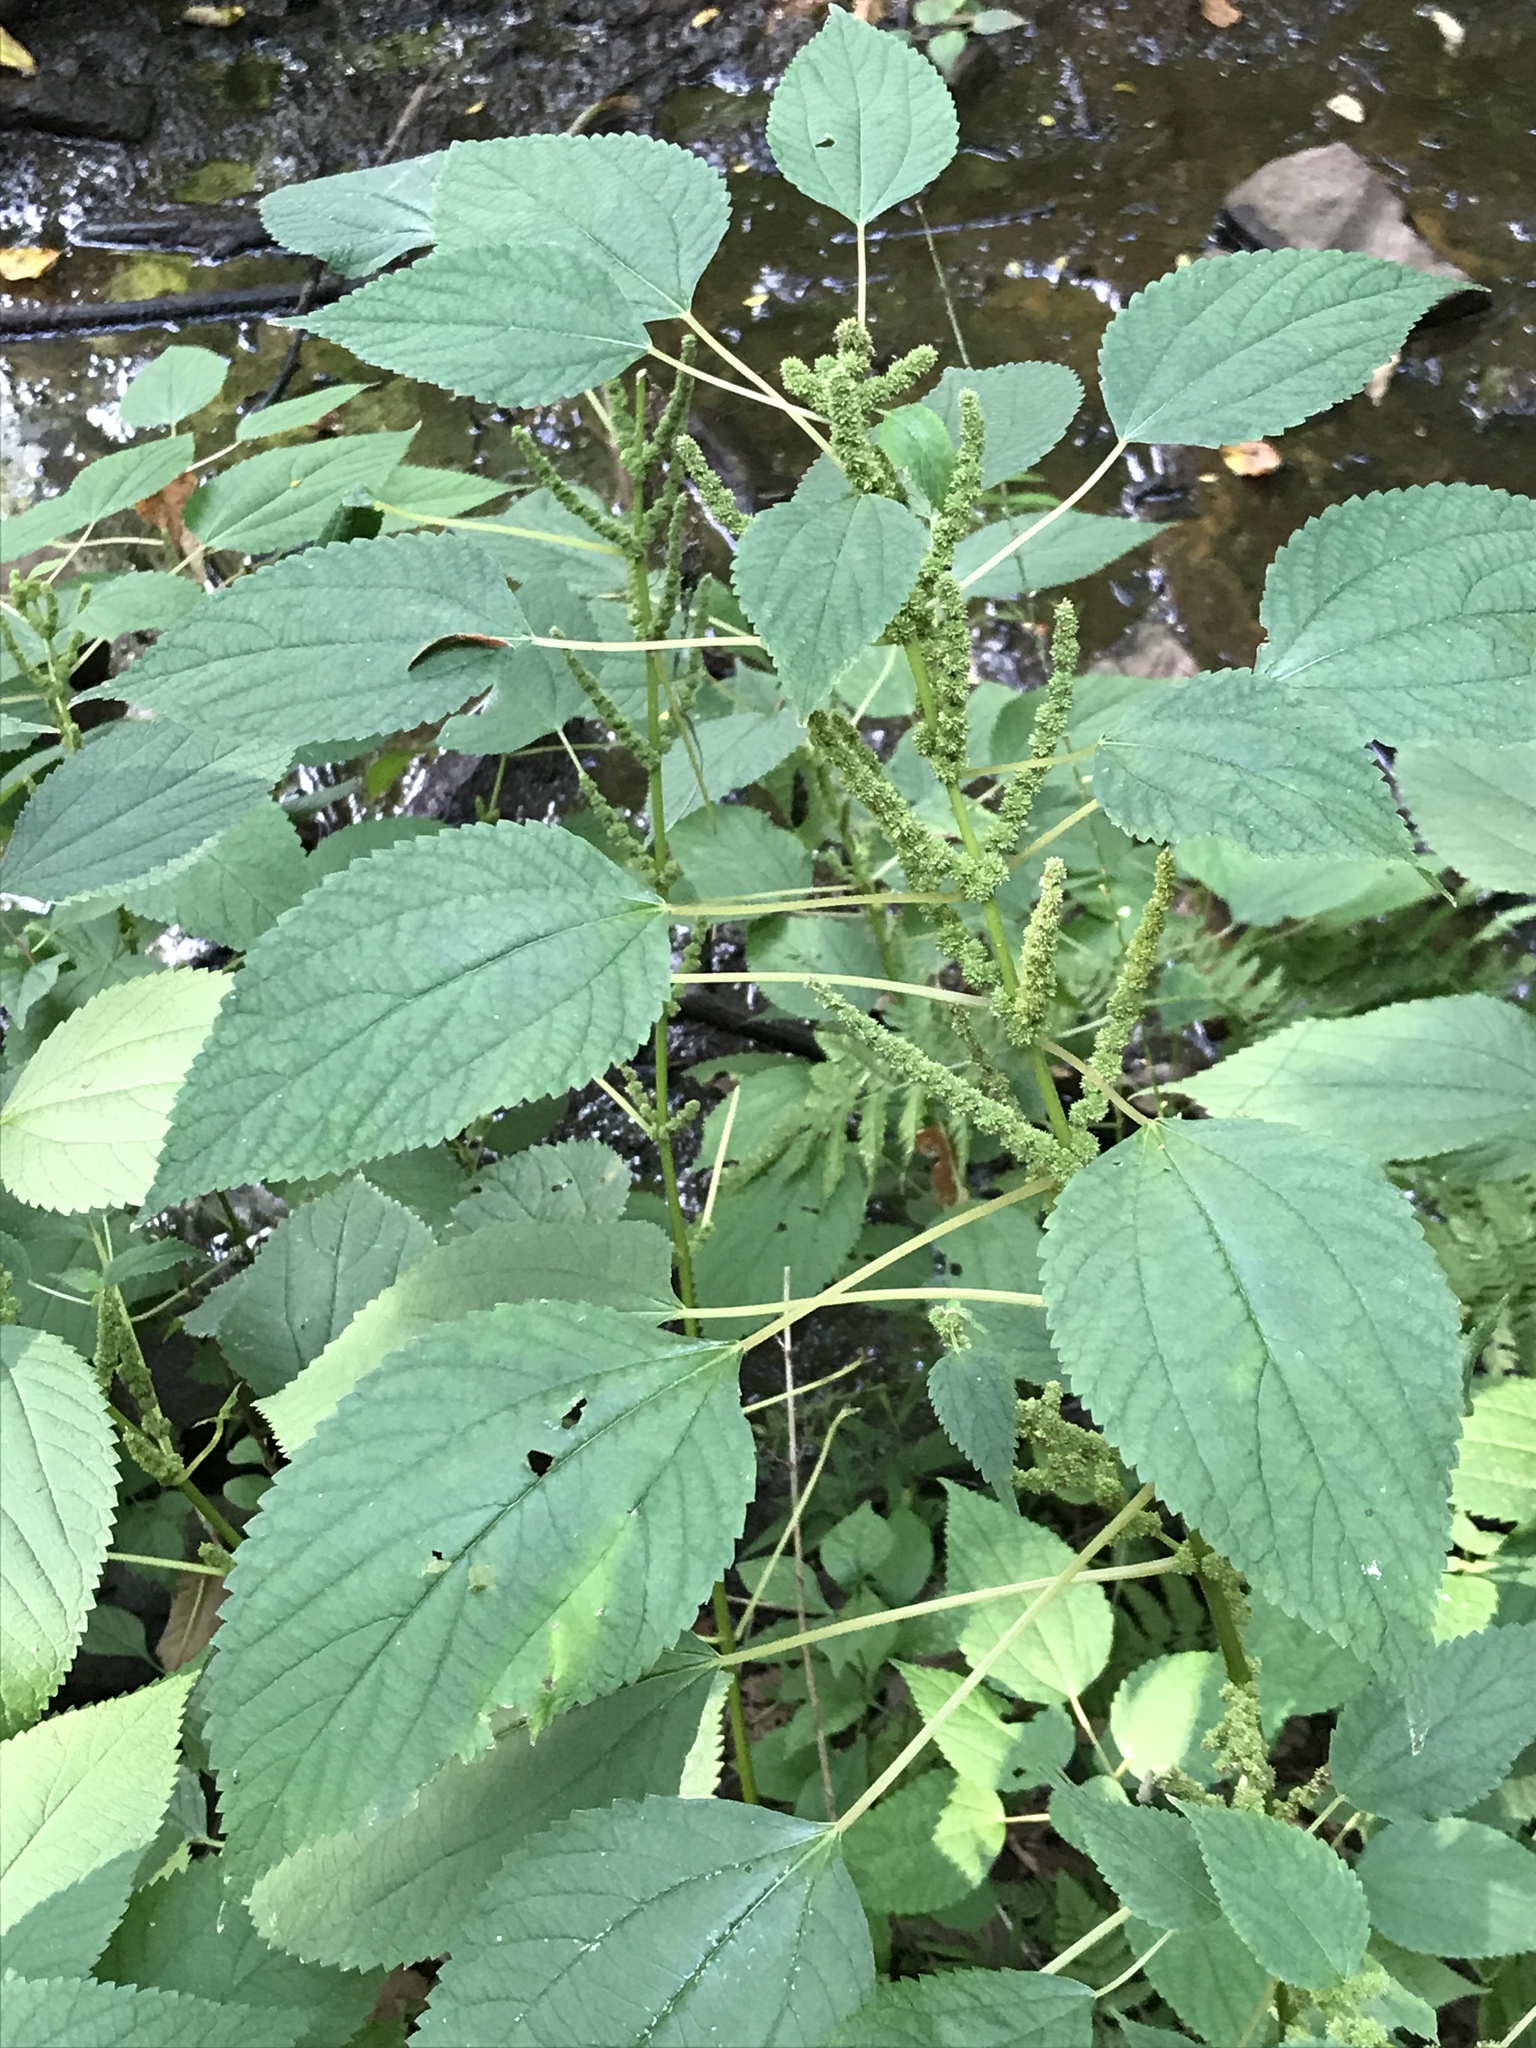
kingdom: Plantae
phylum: Tracheophyta
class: Magnoliopsida
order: Rosales
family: Urticaceae
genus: Boehmeria
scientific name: Boehmeria cylindrica
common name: Bog-hemp
